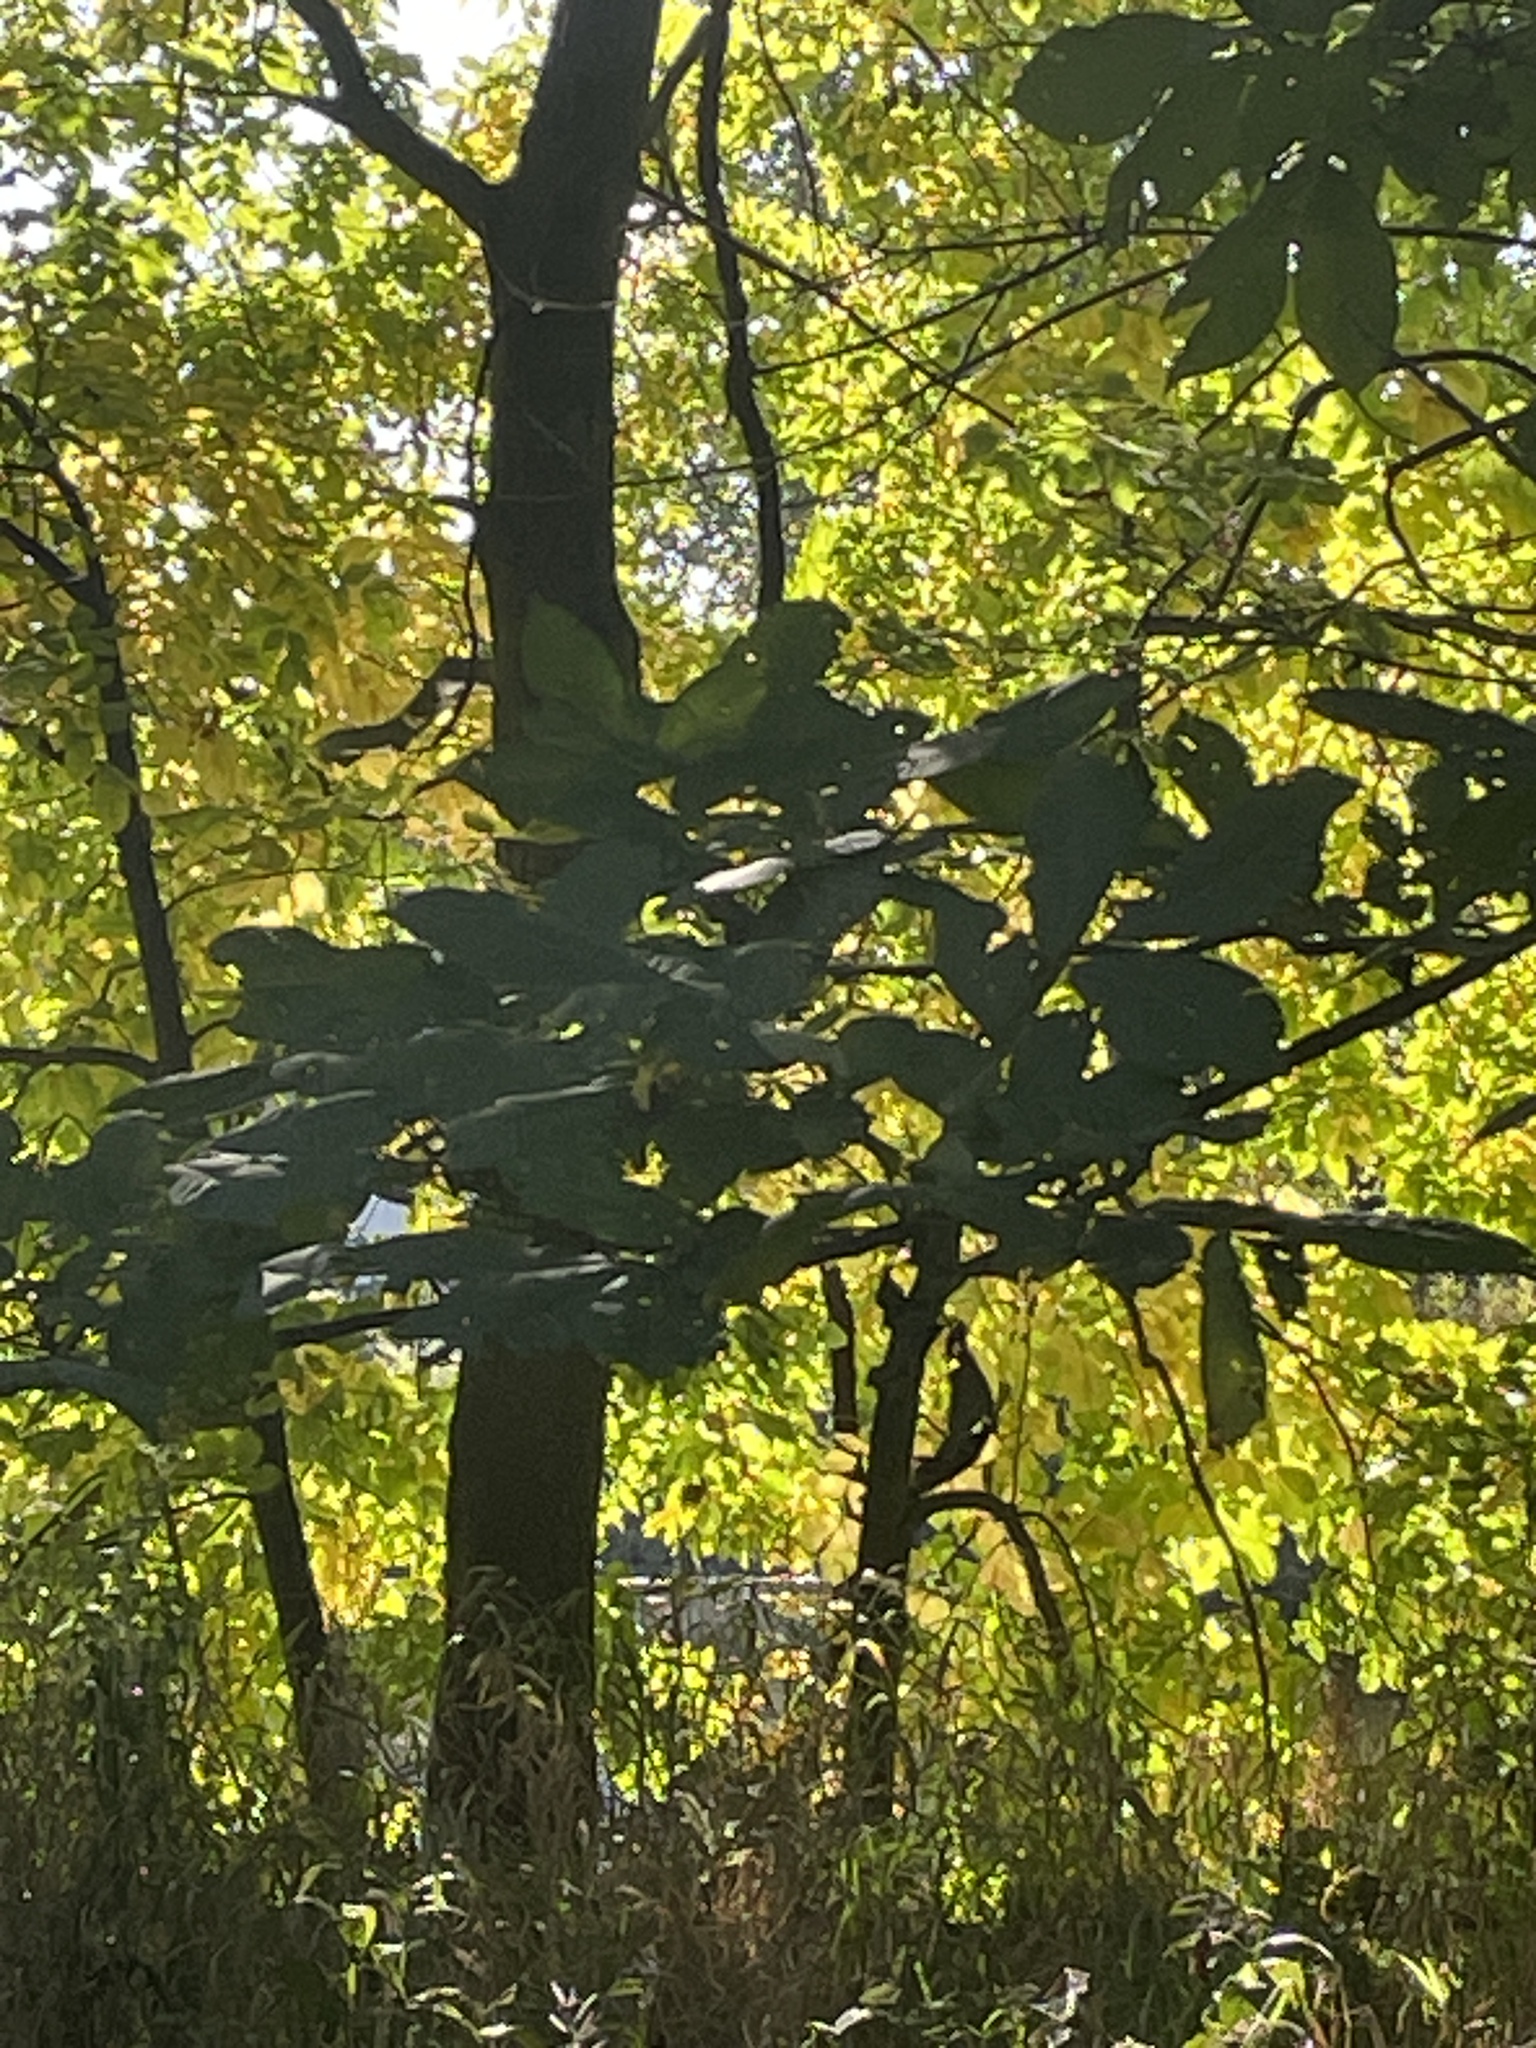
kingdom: Plantae
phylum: Tracheophyta
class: Magnoliopsida
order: Fagales
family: Juglandaceae
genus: Carya
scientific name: Carya ovata
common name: Shagbark hickory
